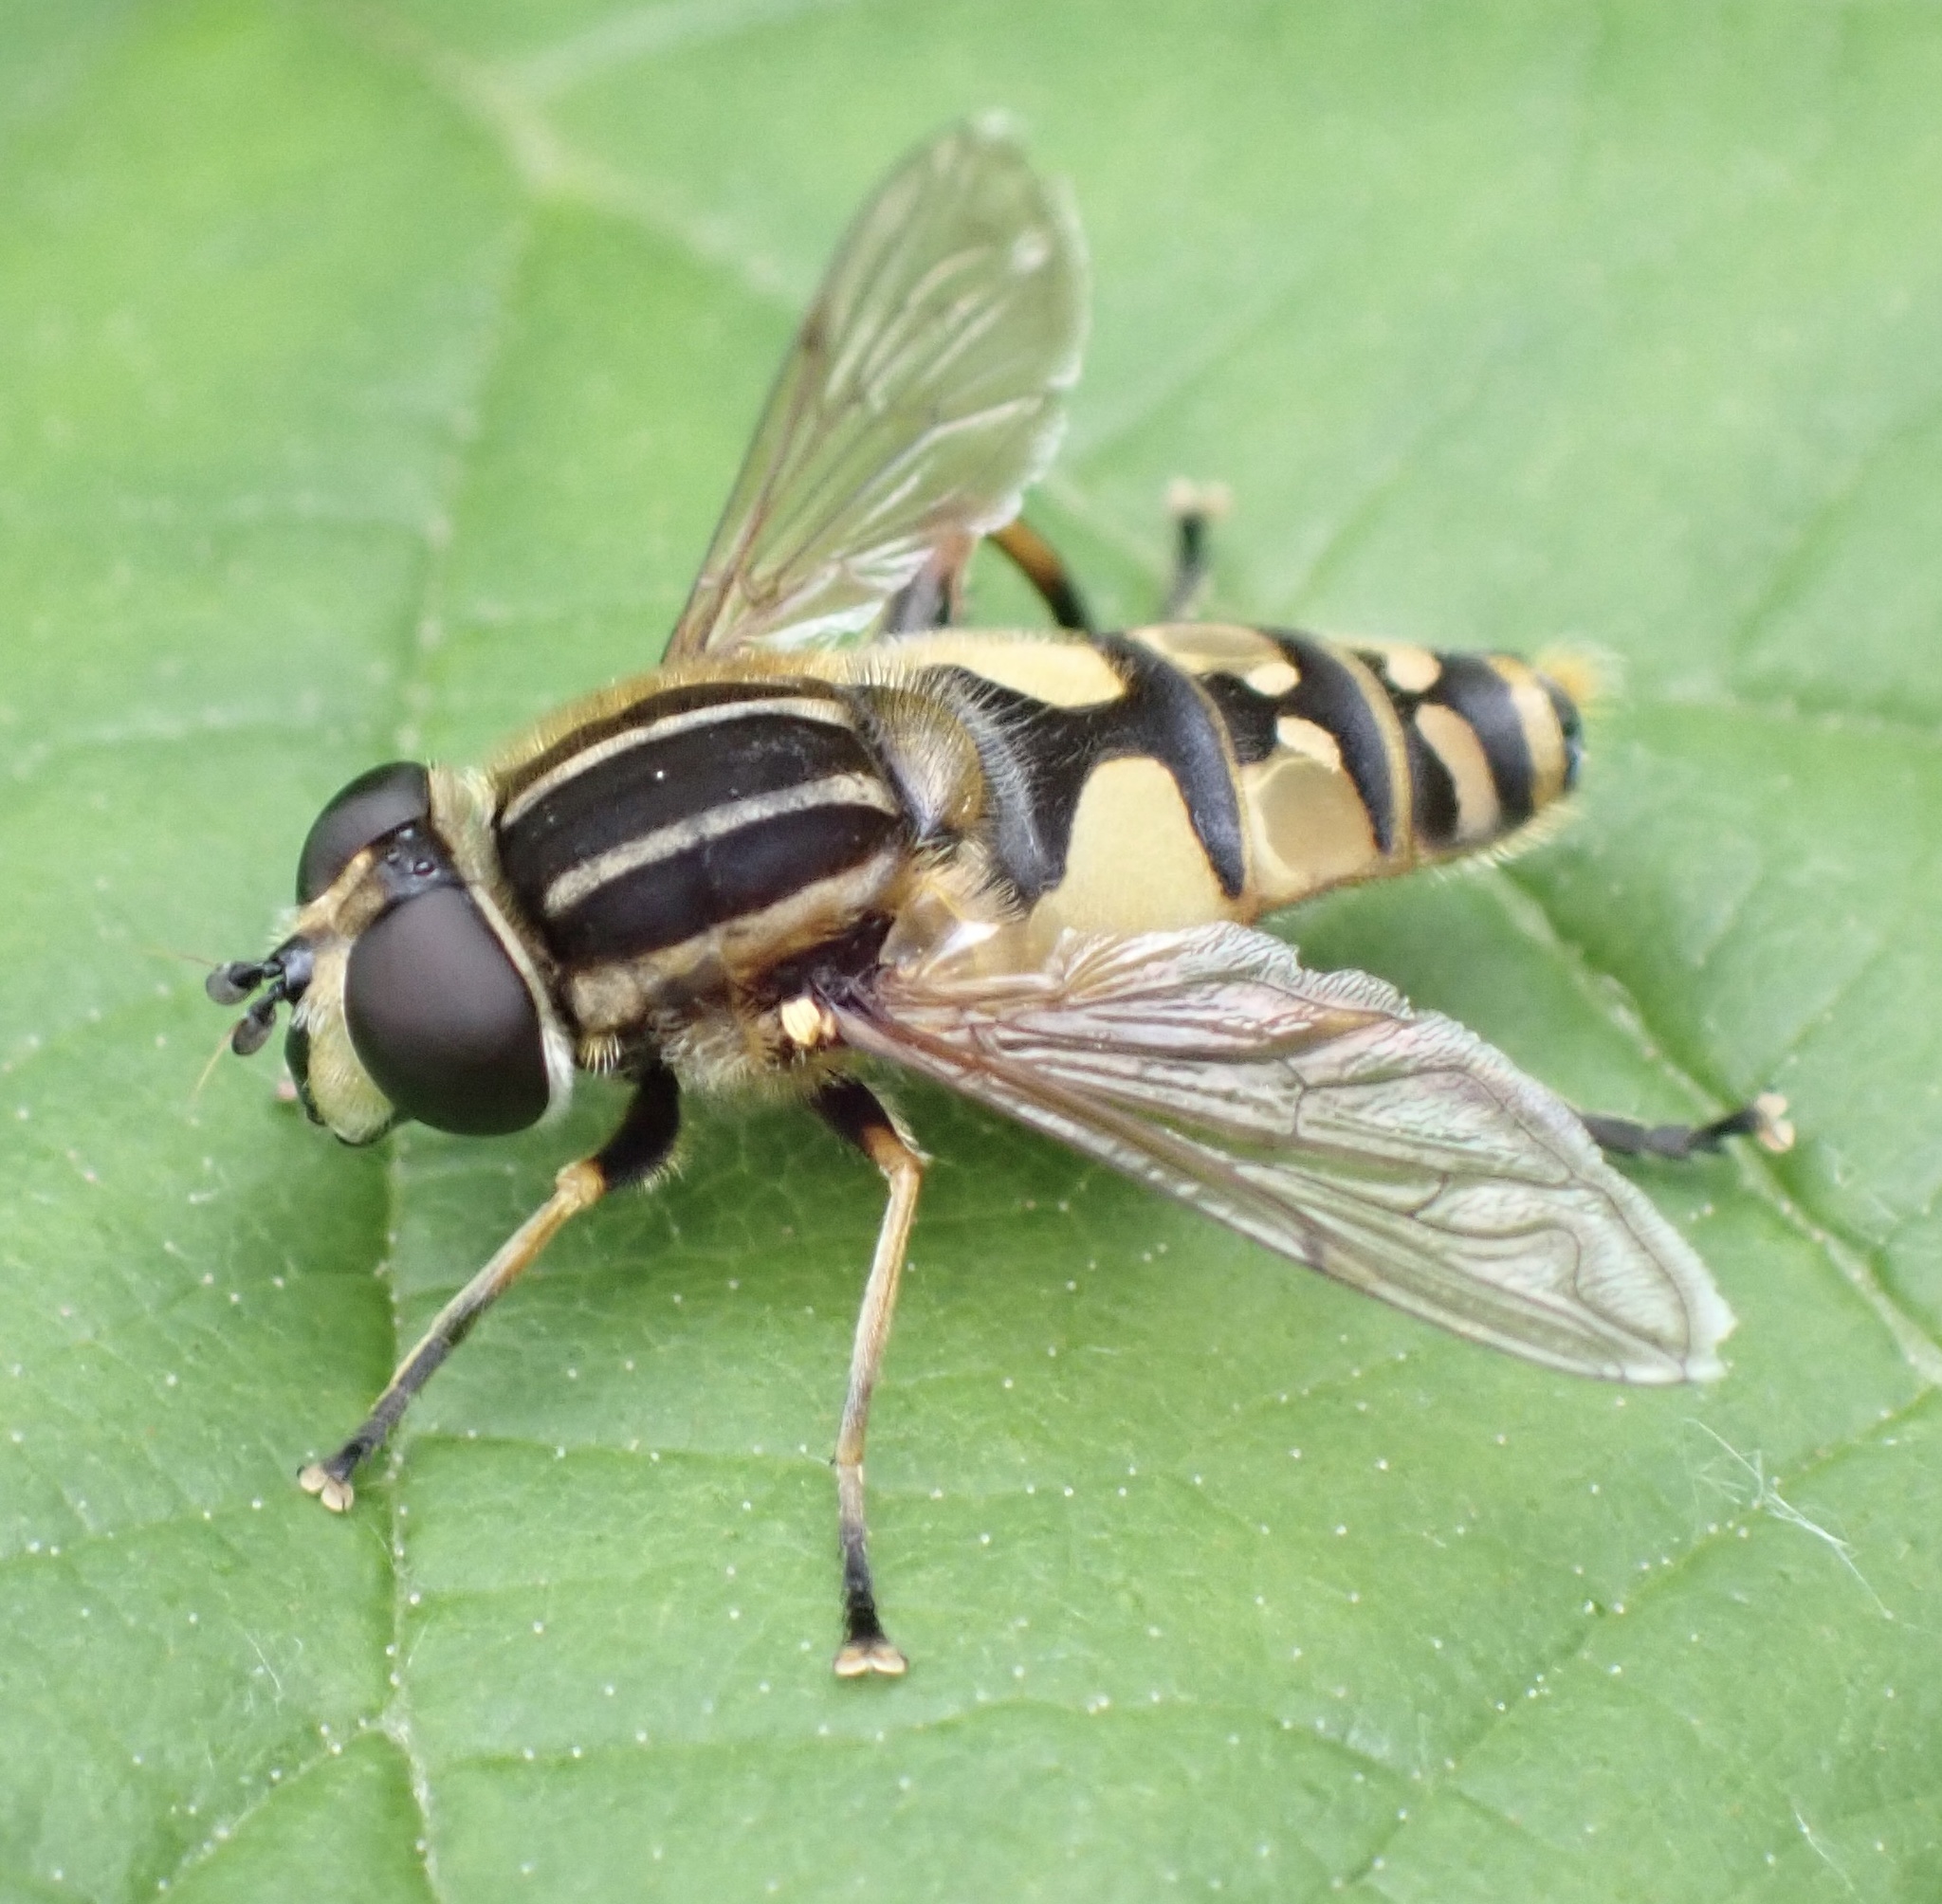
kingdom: Animalia
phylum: Arthropoda
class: Insecta
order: Diptera
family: Syrphidae
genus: Helophilus
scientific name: Helophilus pendulus
